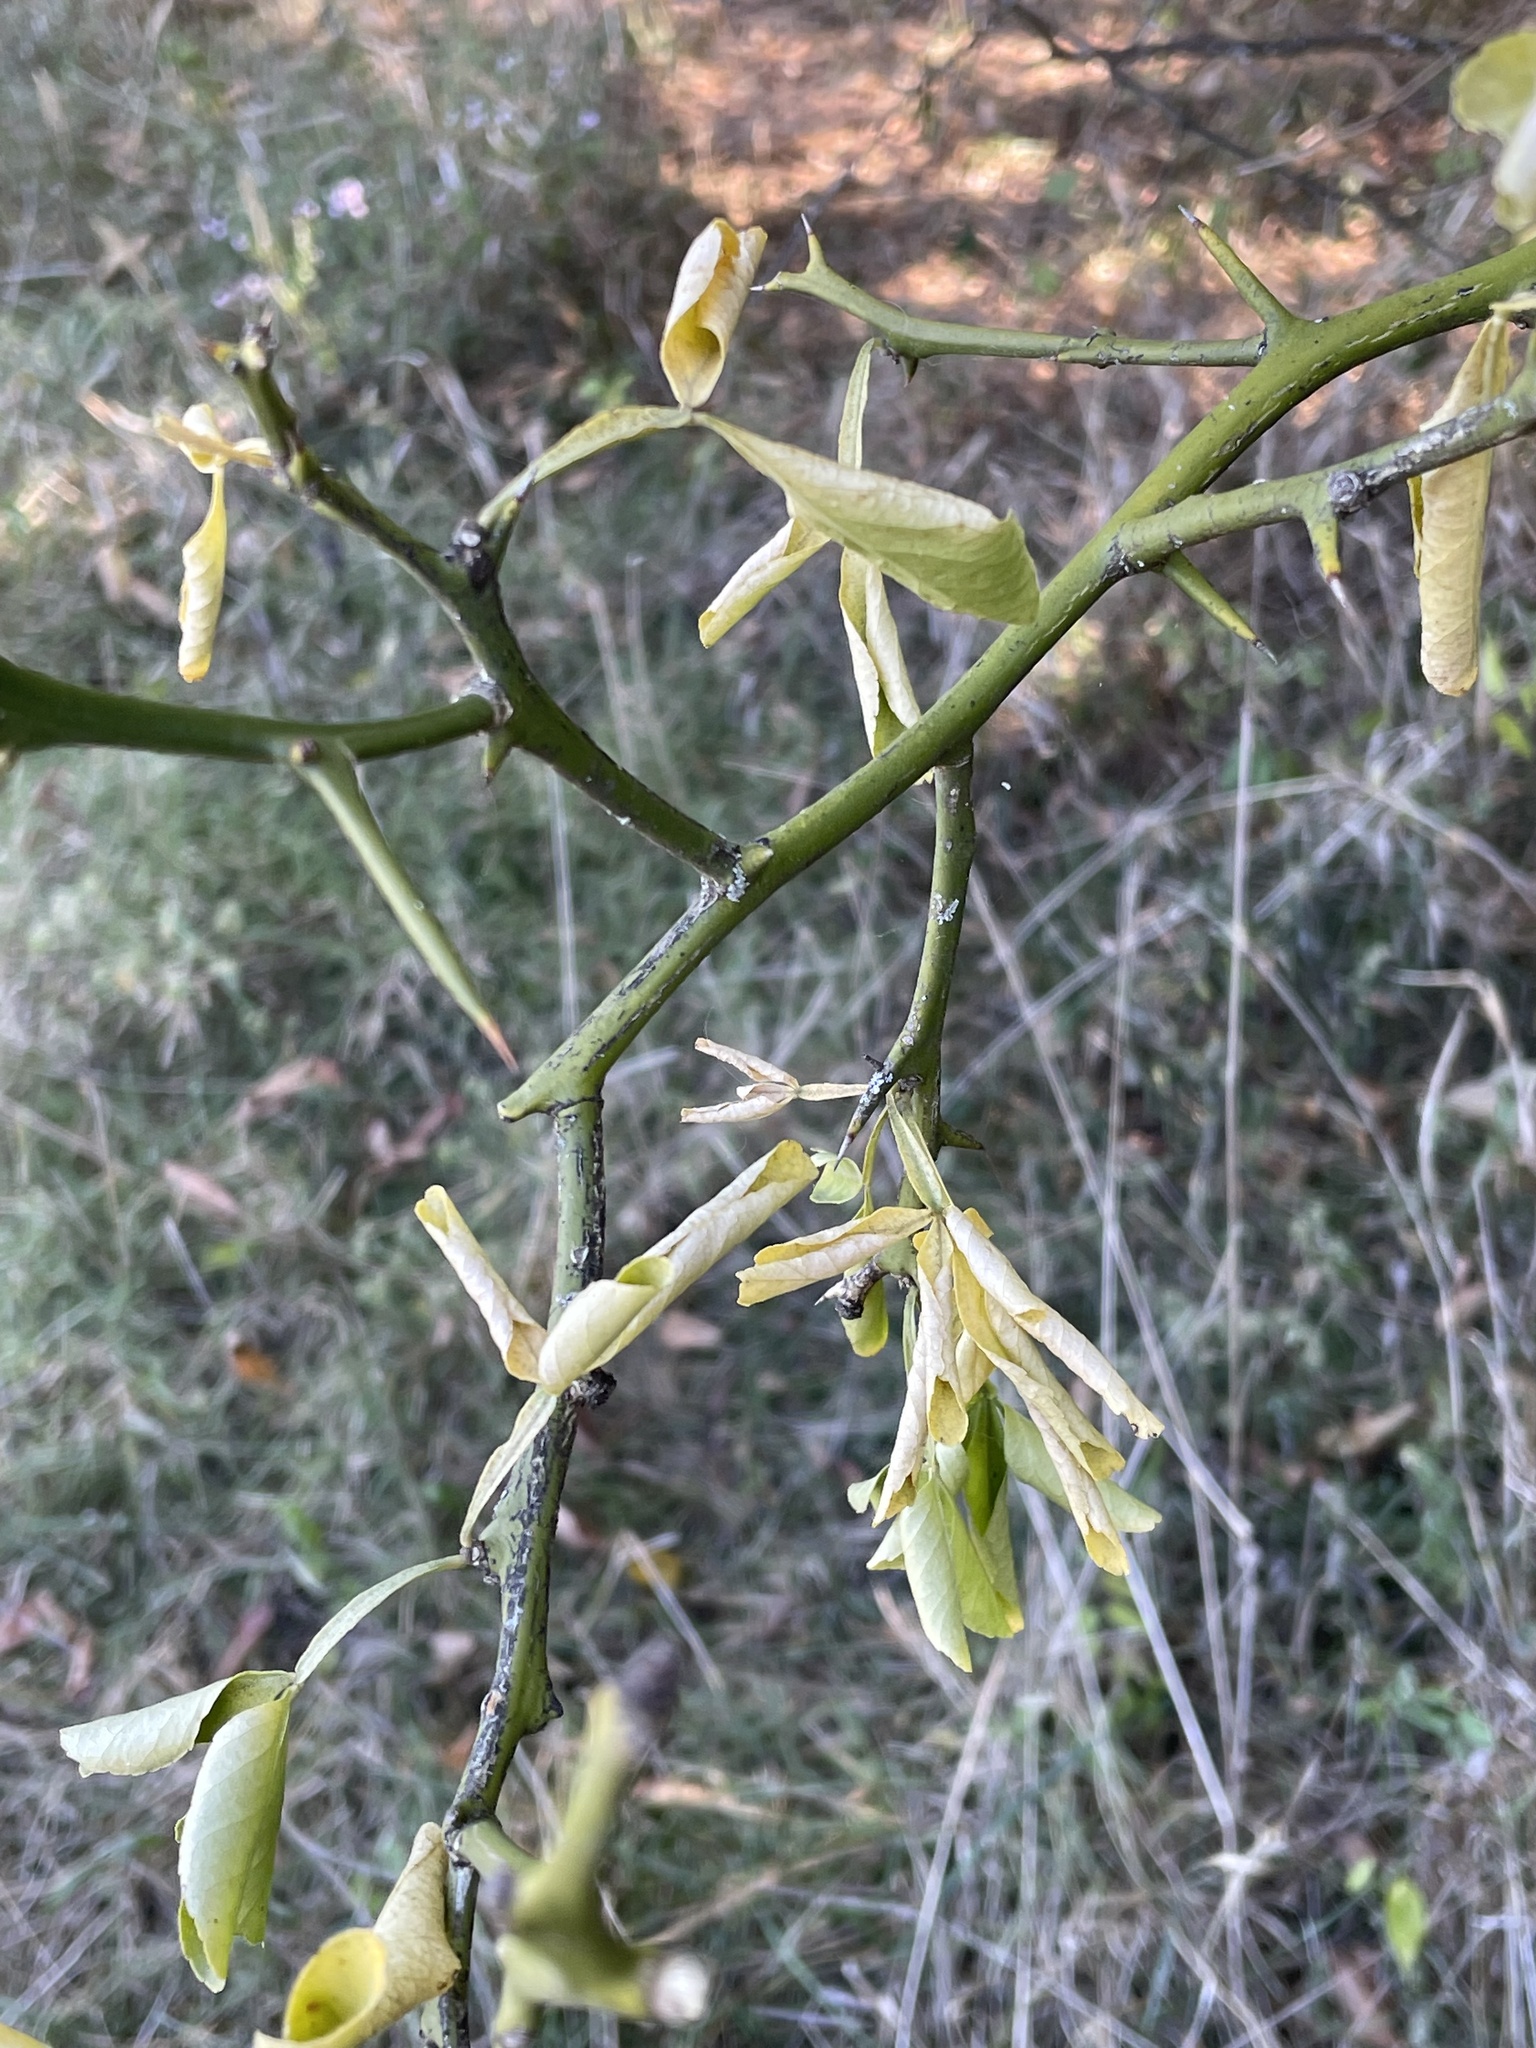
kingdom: Plantae
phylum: Tracheophyta
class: Magnoliopsida
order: Sapindales
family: Rutaceae
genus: Citrus
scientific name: Citrus trifoliata
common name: Japanese bitter-orange
